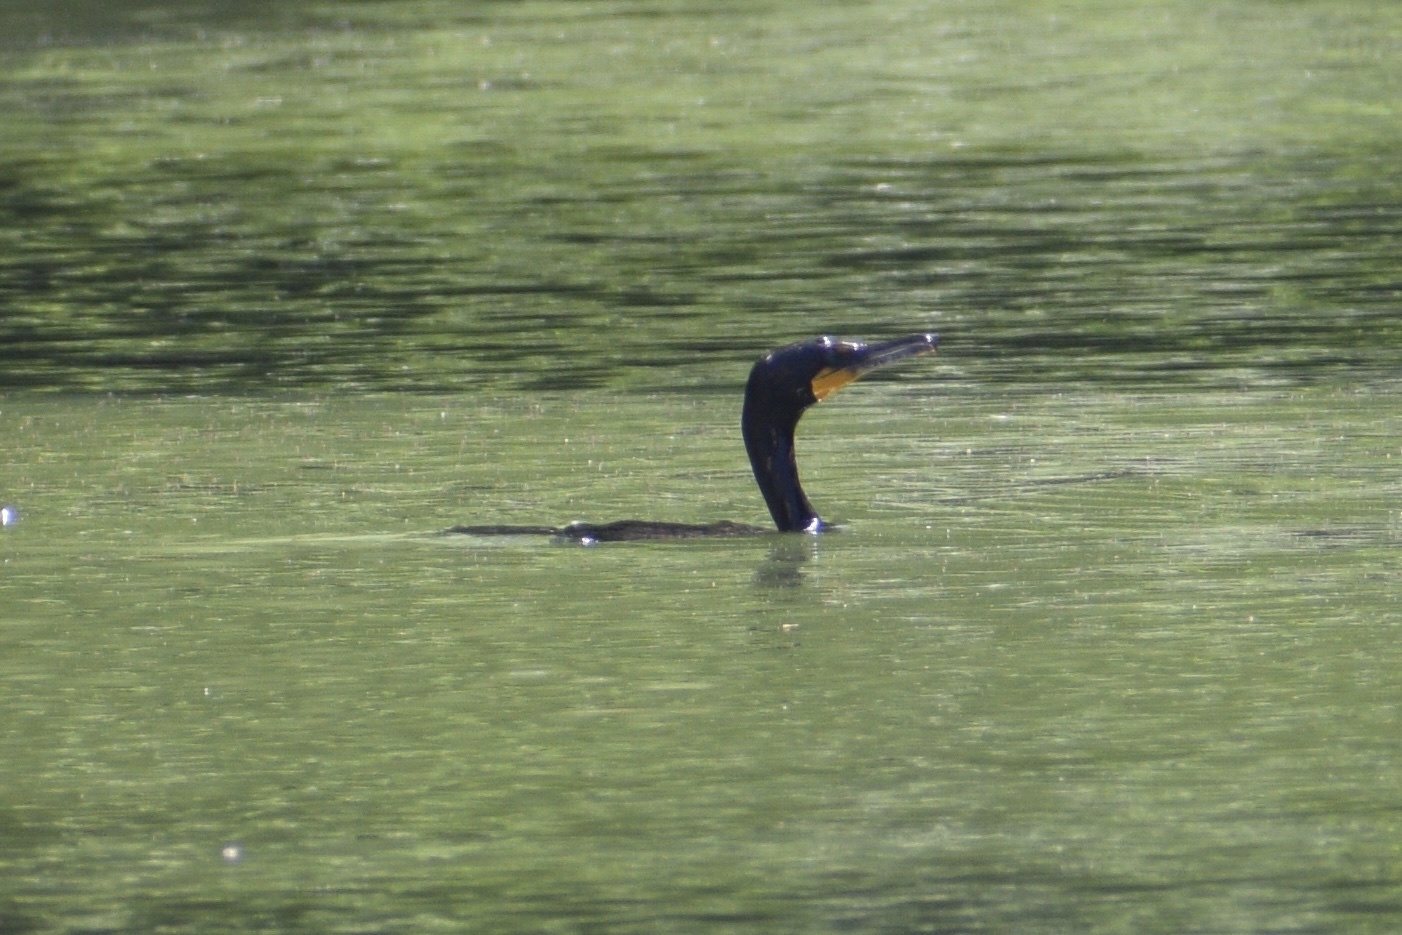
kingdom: Animalia
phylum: Chordata
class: Aves
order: Suliformes
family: Phalacrocoracidae
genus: Phalacrocorax
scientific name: Phalacrocorax auritus
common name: Double-crested cormorant
